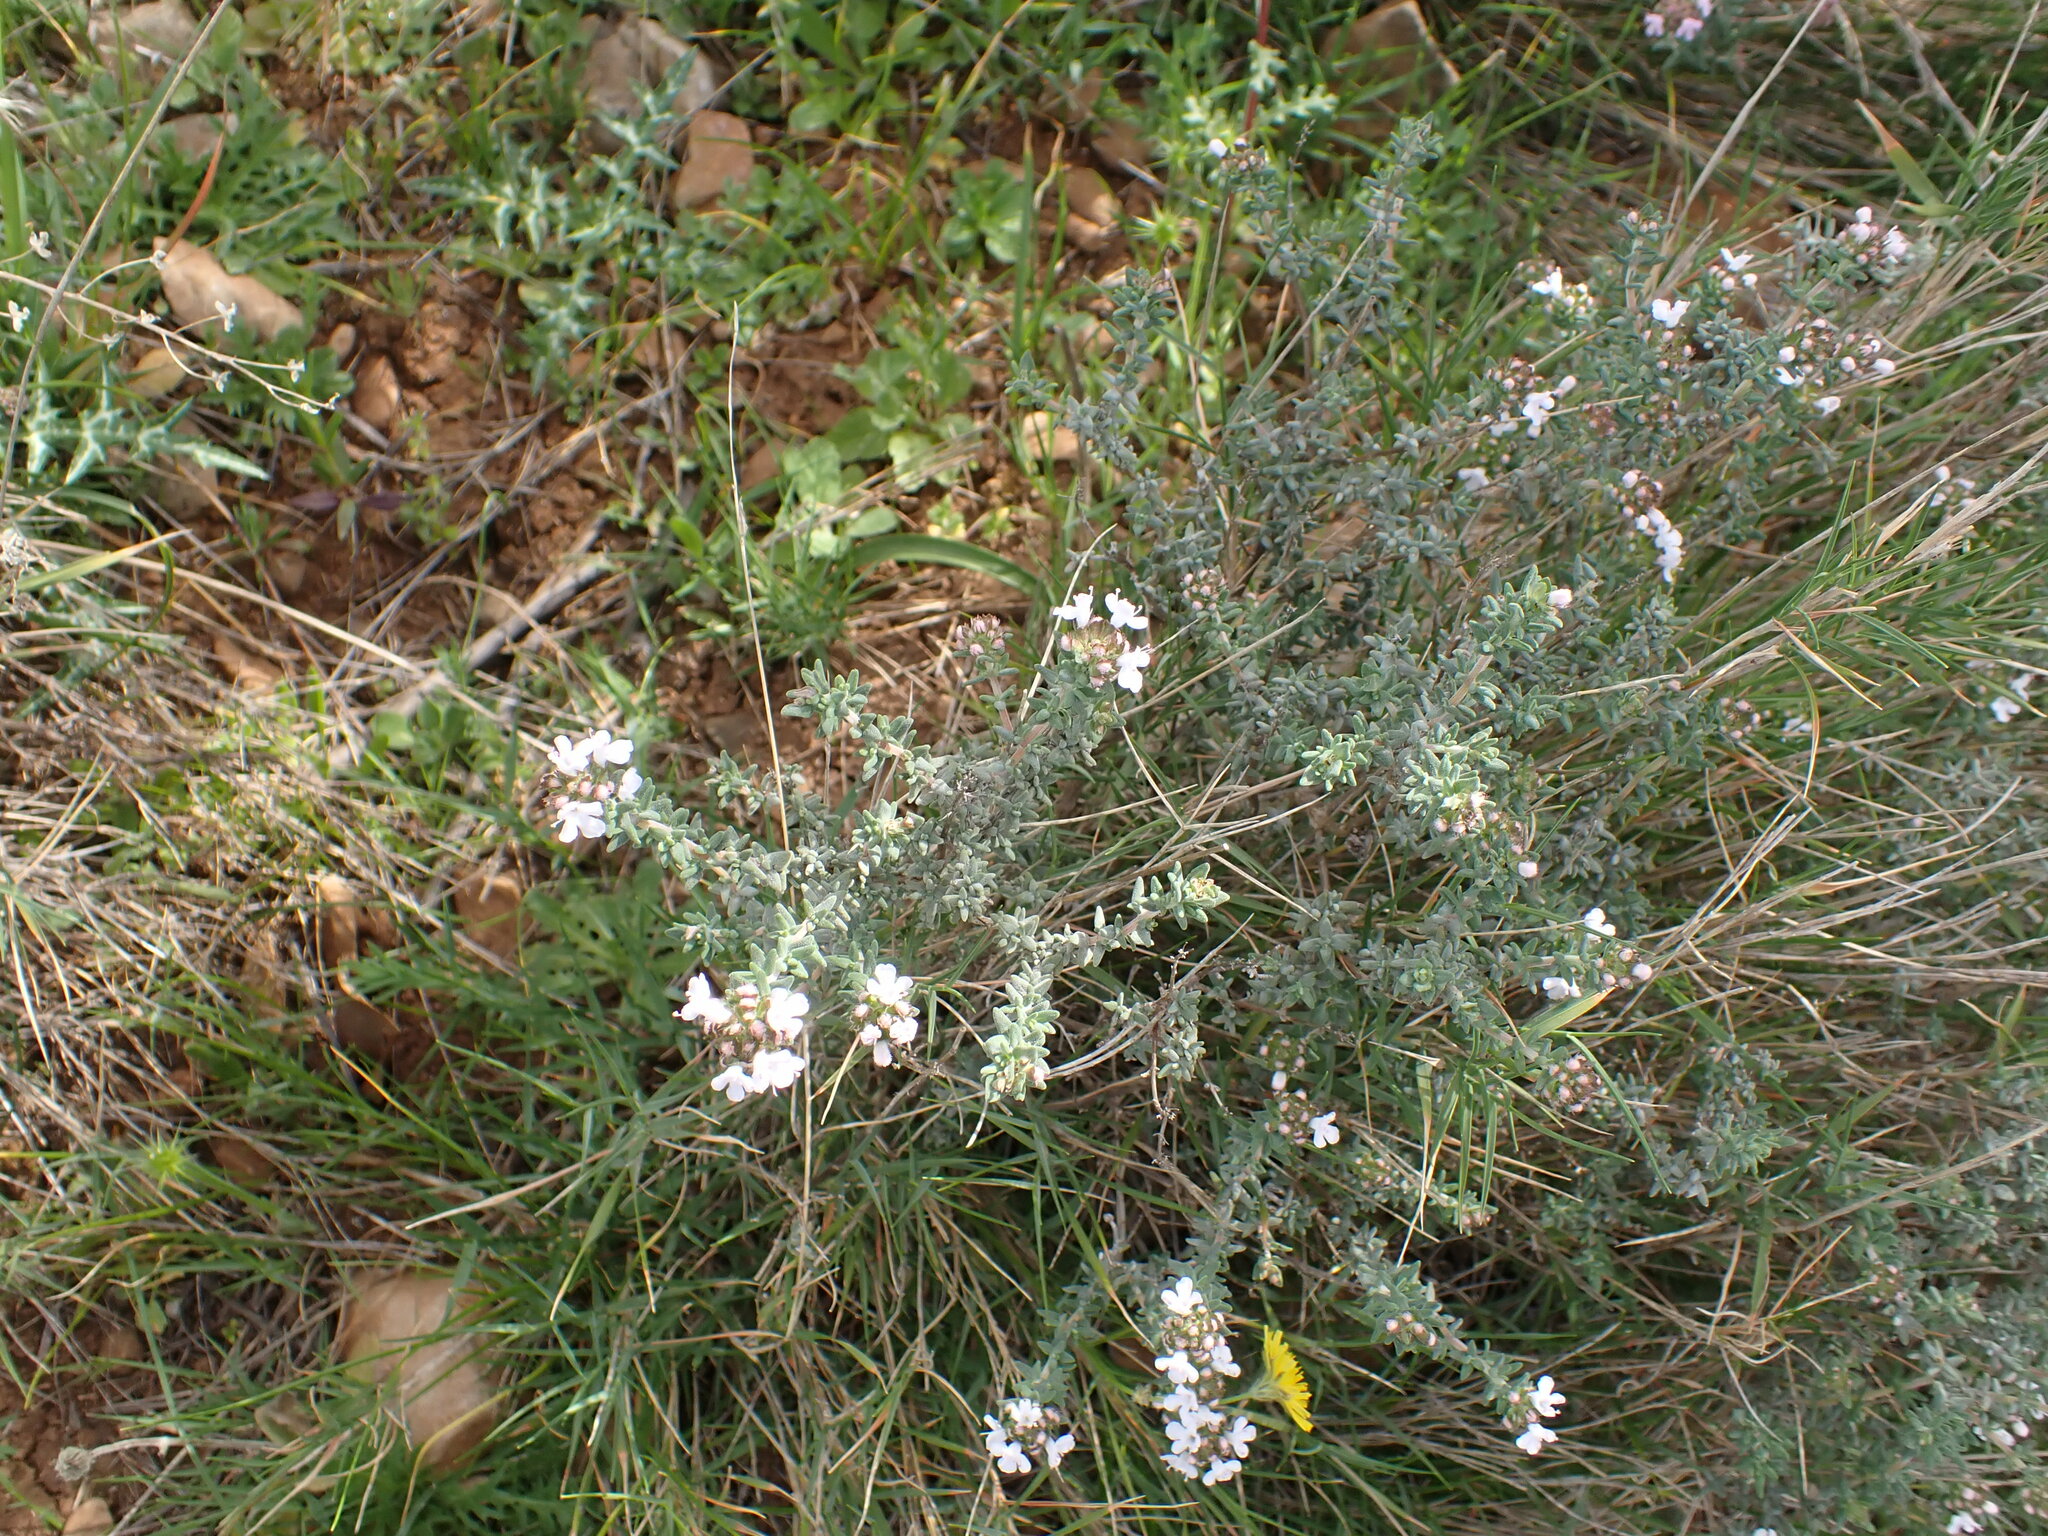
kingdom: Plantae
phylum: Tracheophyta
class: Magnoliopsida
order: Lamiales
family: Lamiaceae
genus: Thymus
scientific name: Thymus vulgaris
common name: Garden thyme
